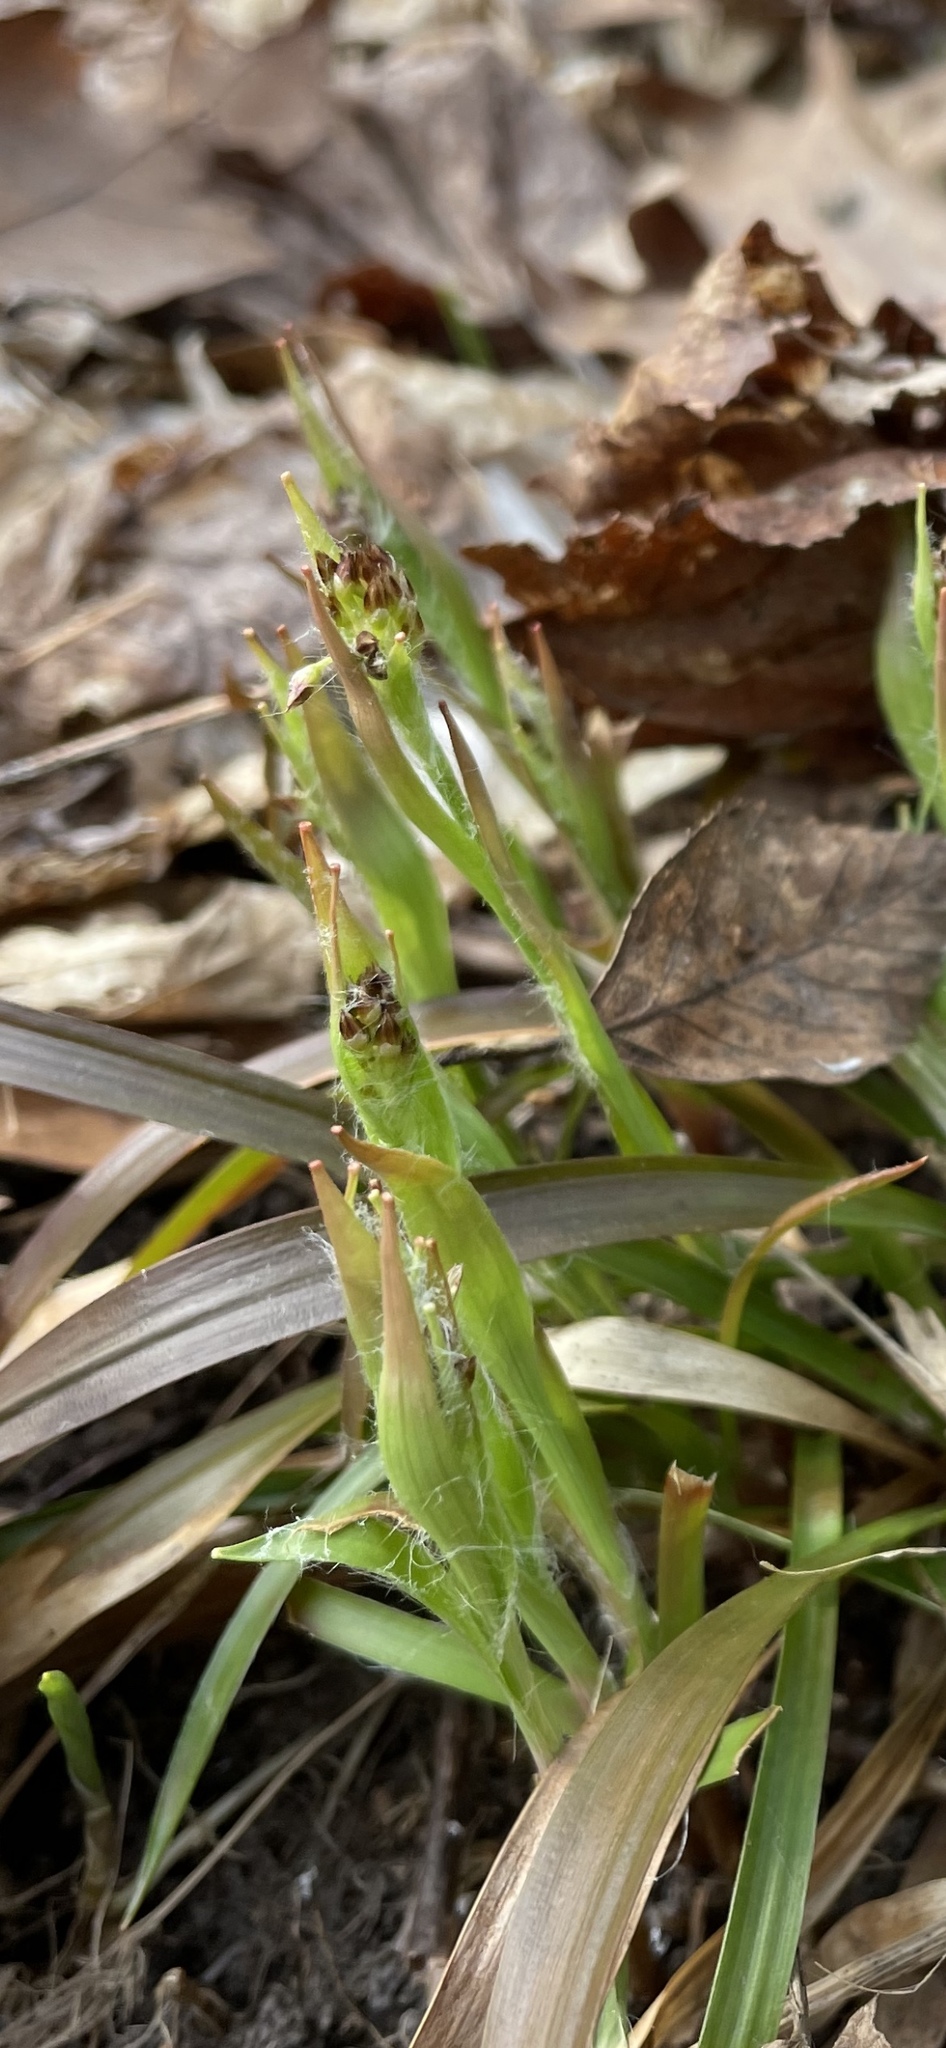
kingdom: Plantae
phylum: Tracheophyta
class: Liliopsida
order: Poales
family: Juncaceae
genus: Luzula
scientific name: Luzula acuminata
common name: Hairy woodrush
